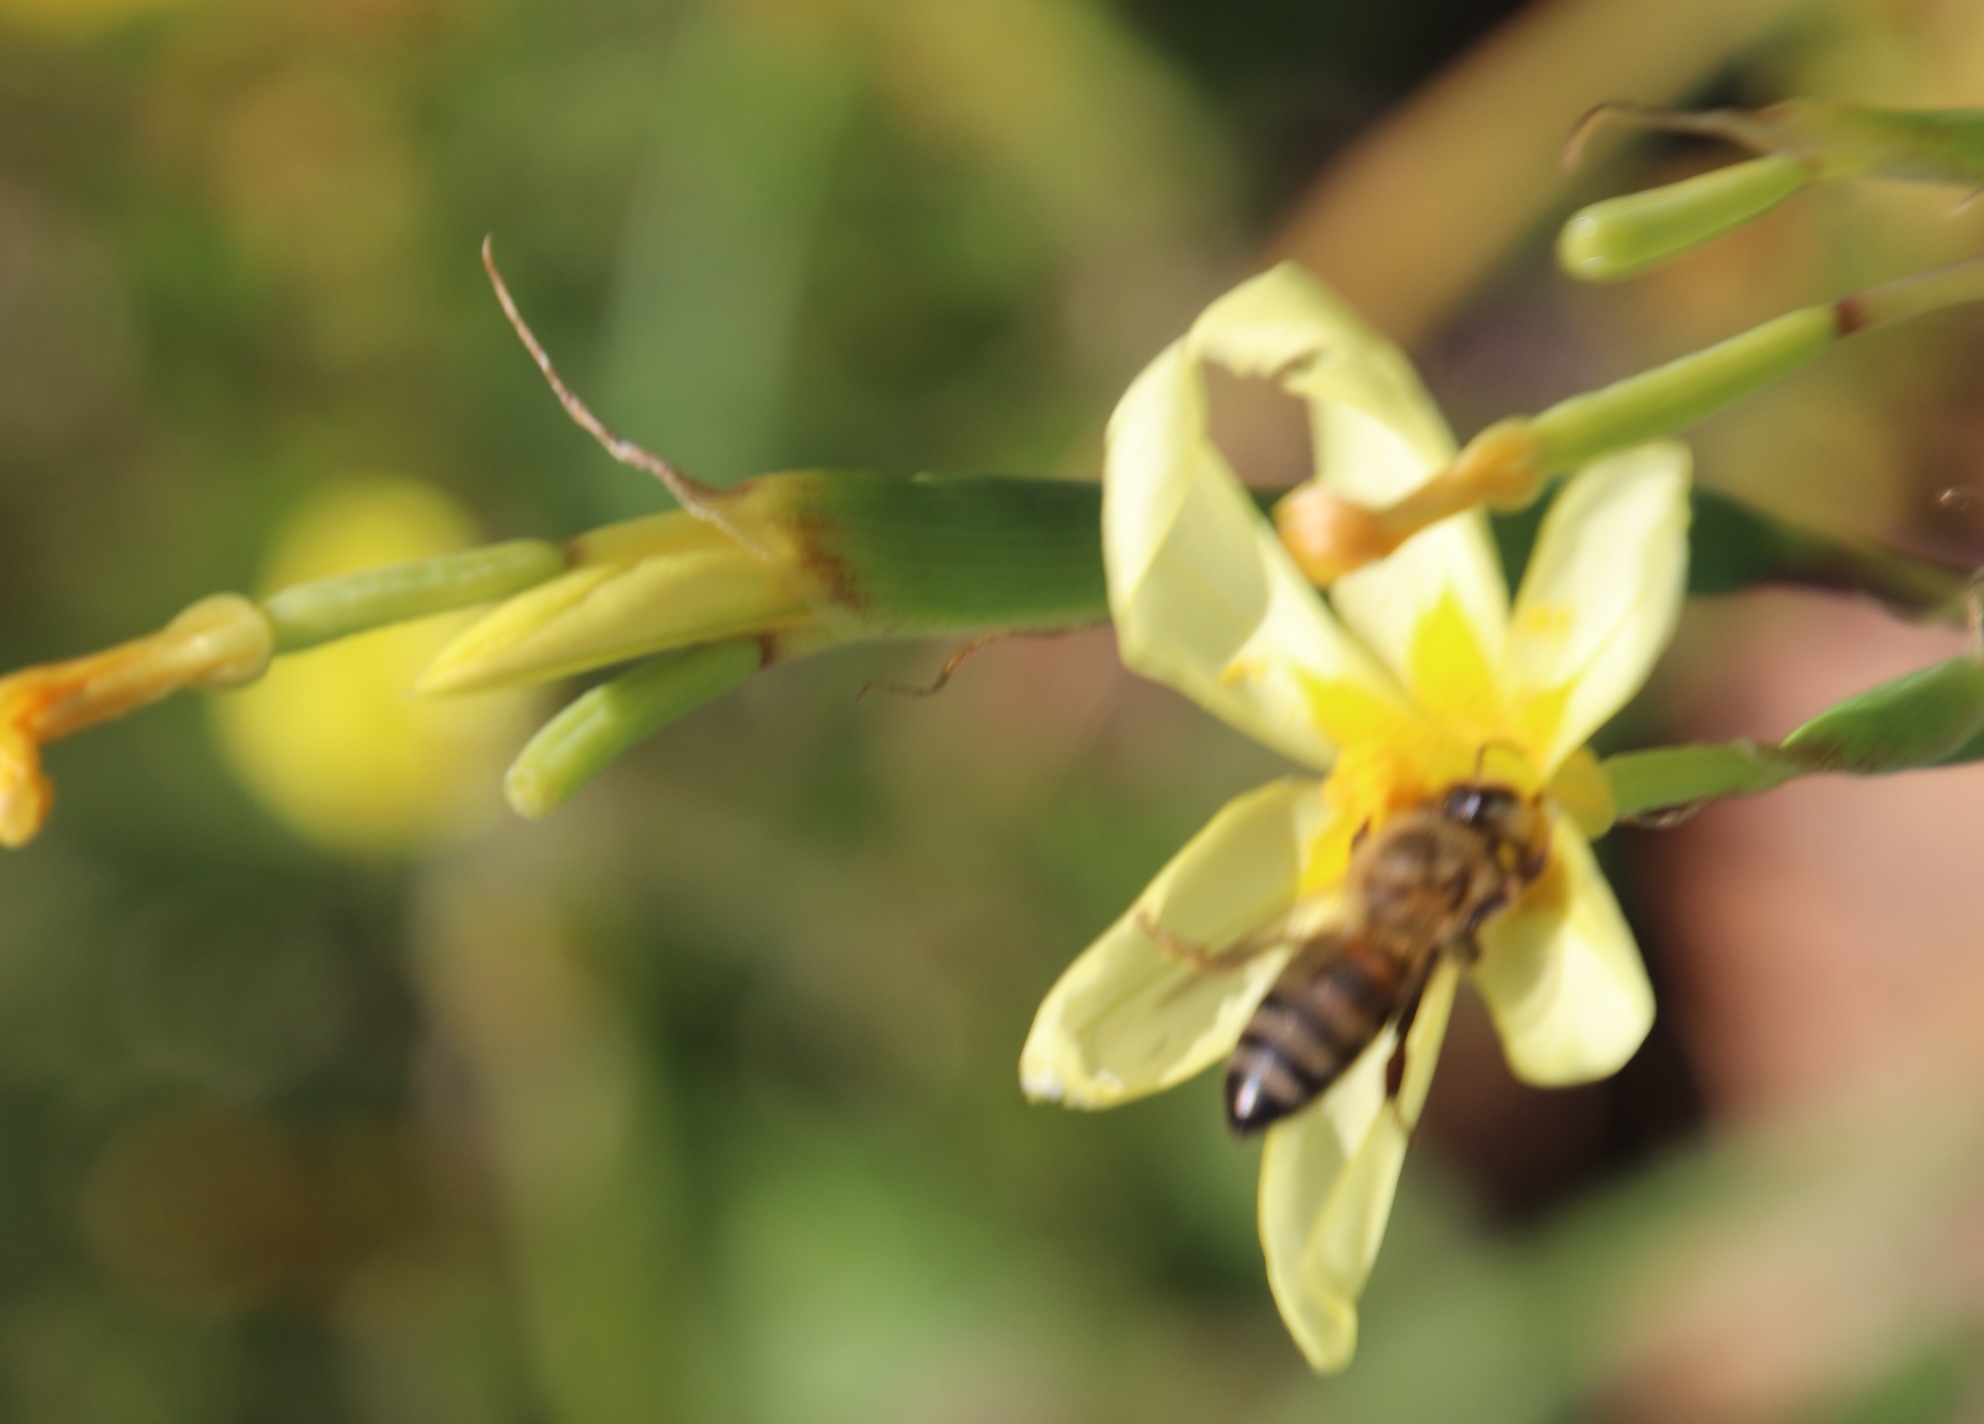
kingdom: Plantae
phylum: Tracheophyta
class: Liliopsida
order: Asparagales
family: Iridaceae
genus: Moraea
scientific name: Moraea miniata
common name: Two-leaf cape-tulip
